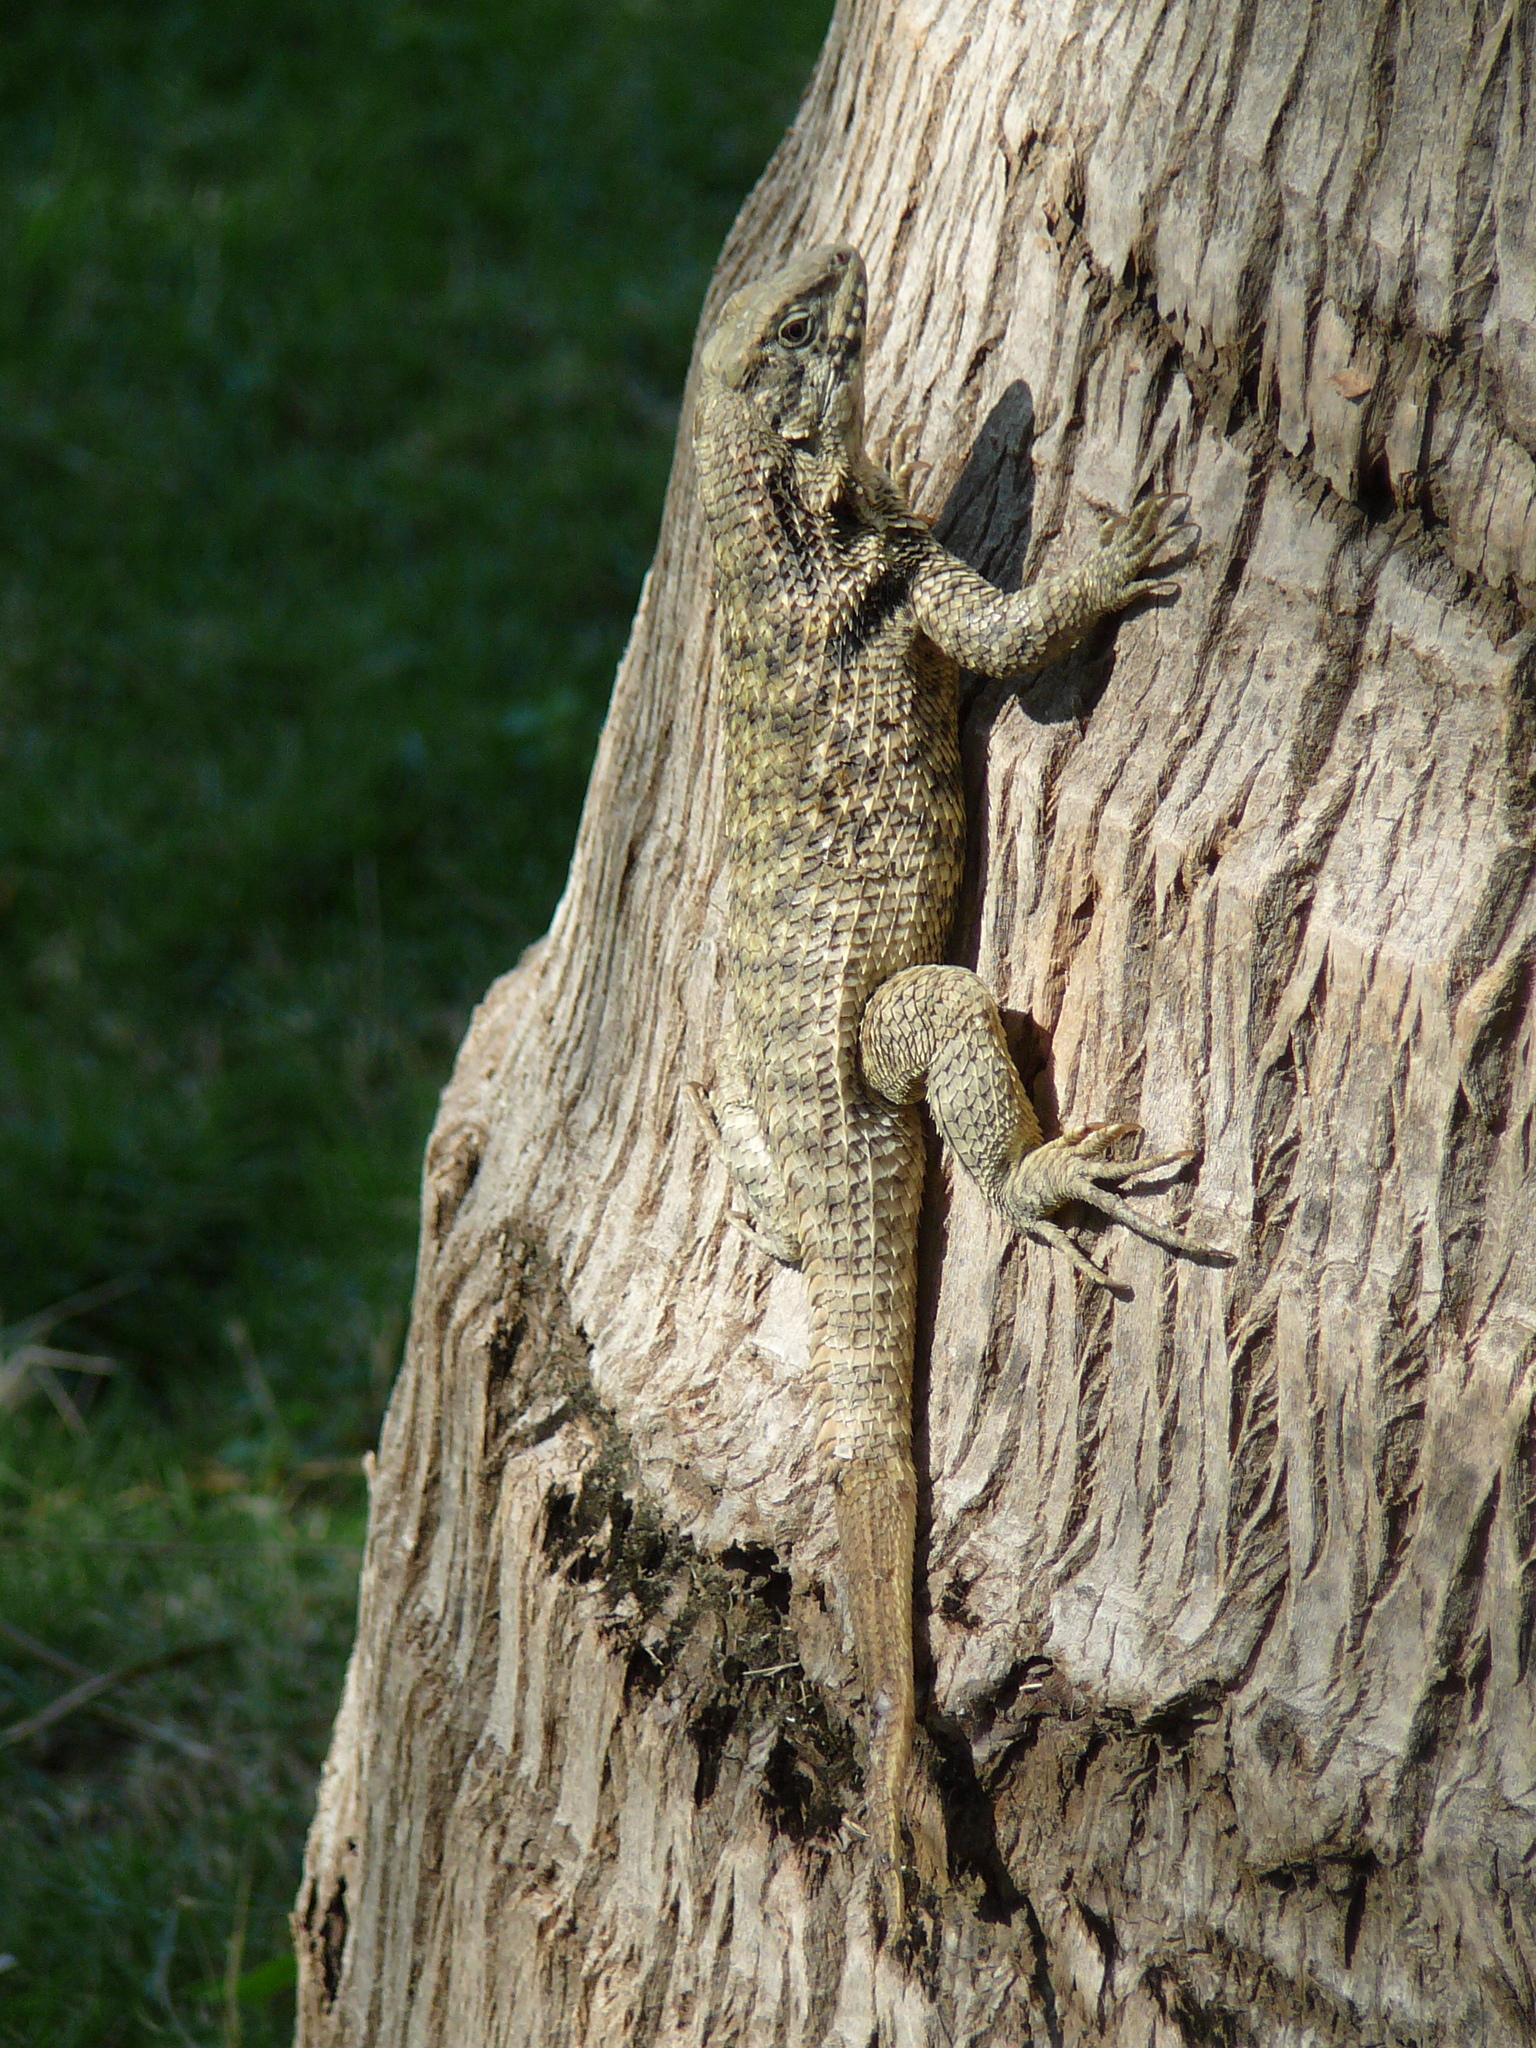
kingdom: Animalia
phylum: Chordata
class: Squamata
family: Leiocephalidae
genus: Leiocephalus
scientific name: Leiocephalus carinatus
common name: Northern curly-tailed lizard
